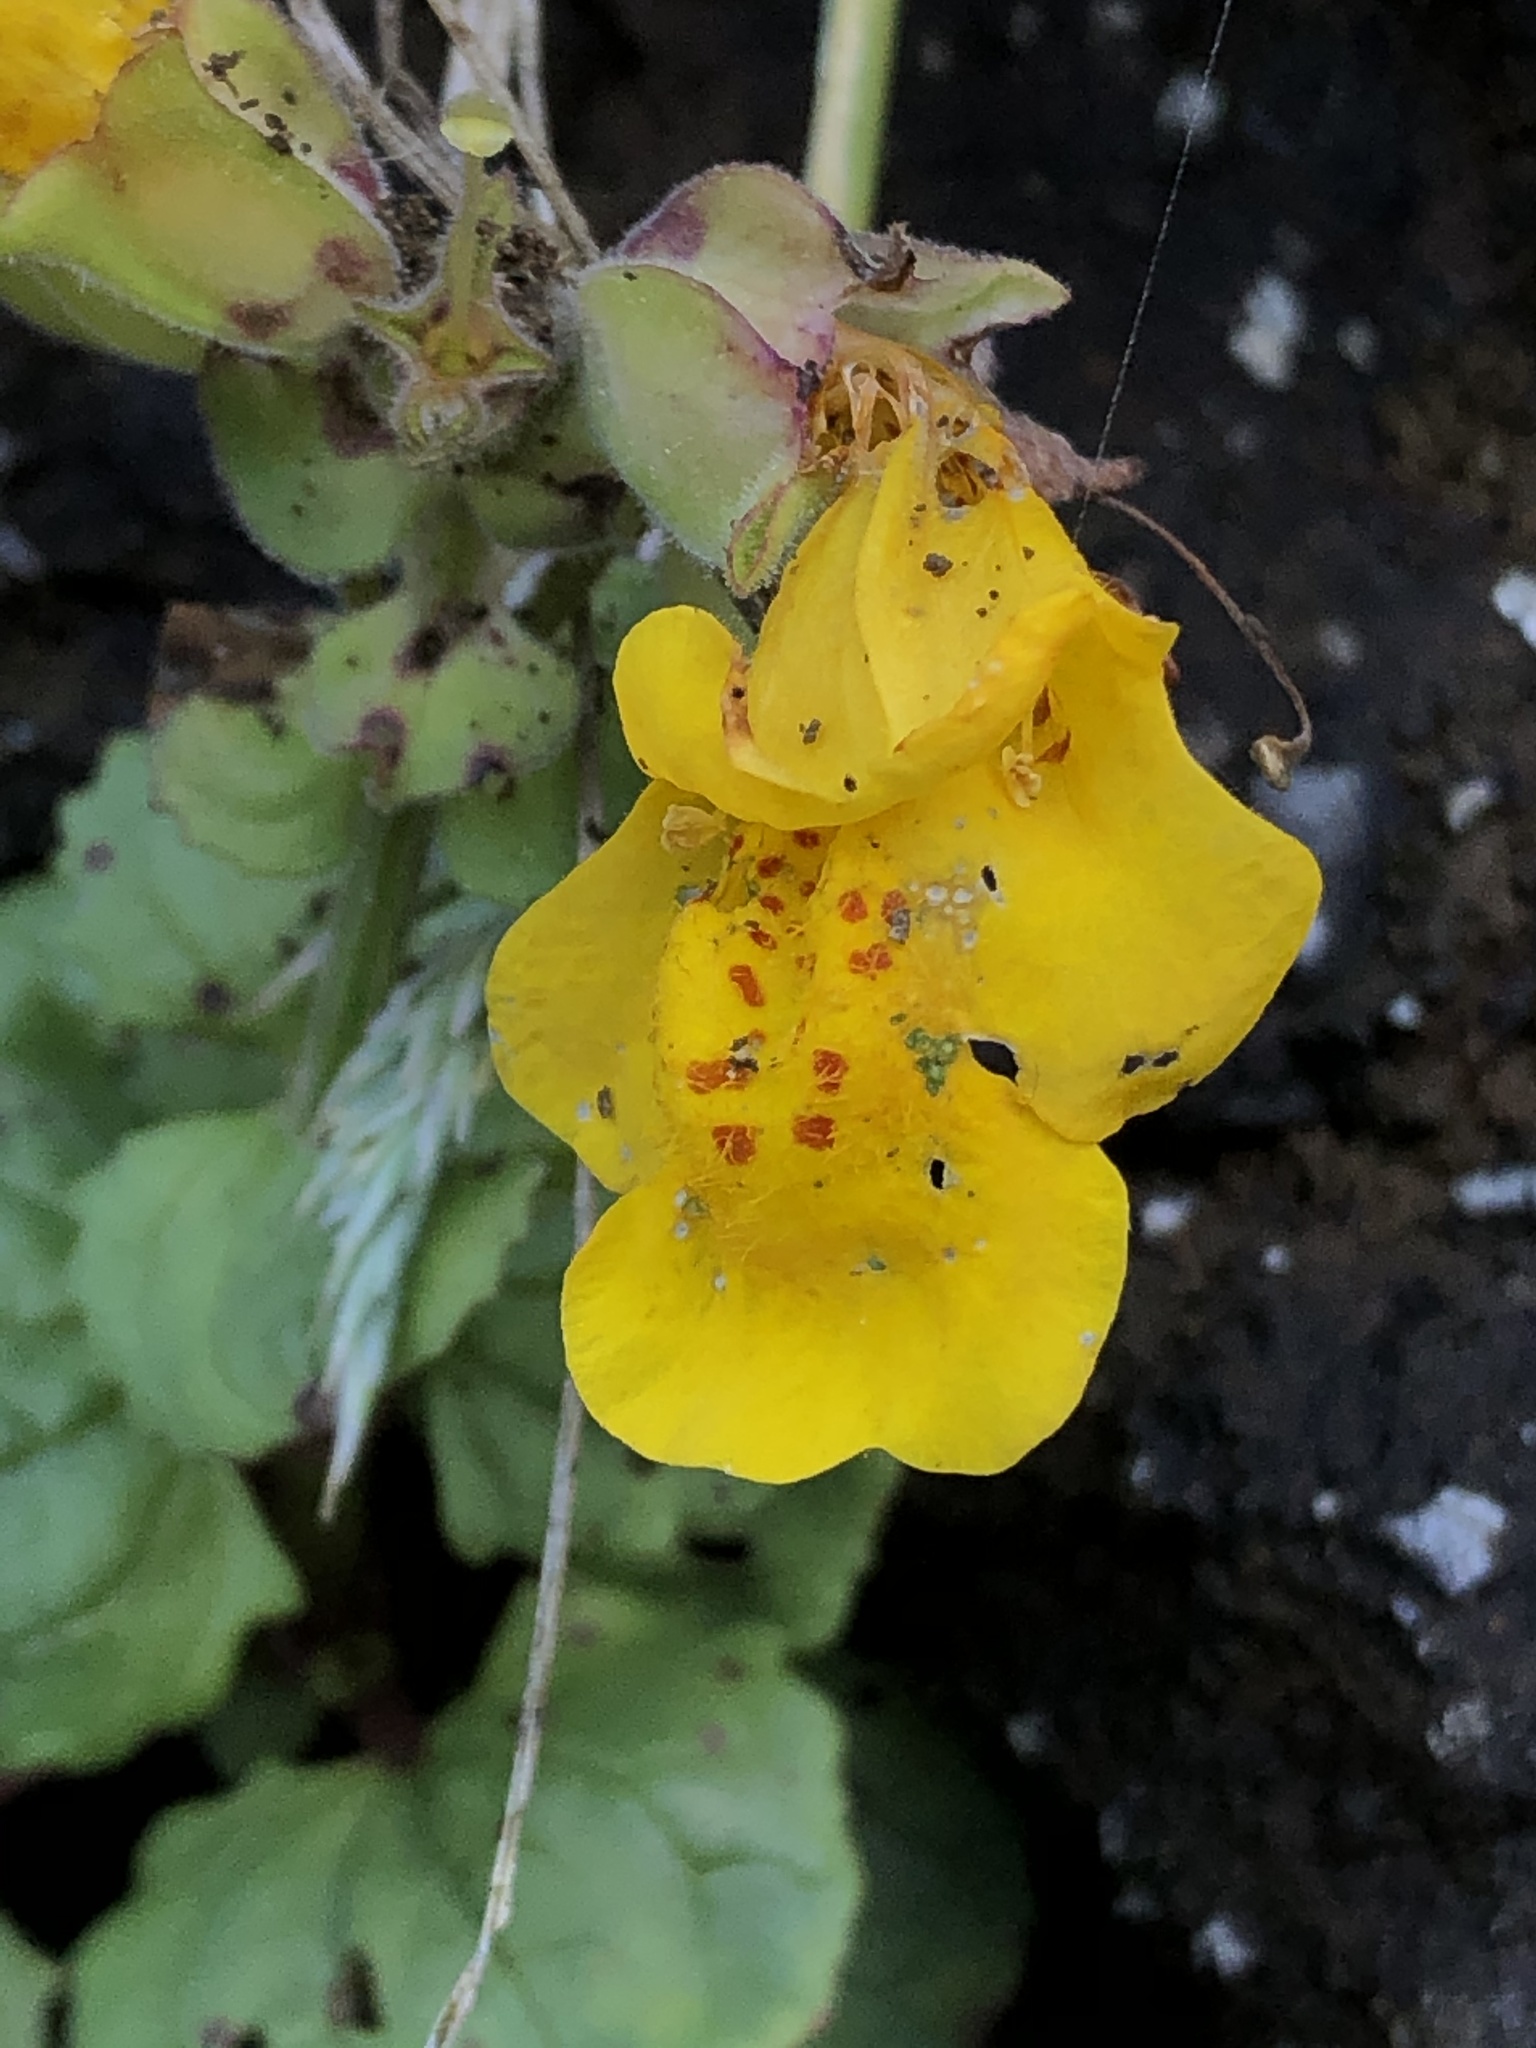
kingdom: Plantae
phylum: Tracheophyta
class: Magnoliopsida
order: Lamiales
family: Phrymaceae
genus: Erythranthe
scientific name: Erythranthe grandis
